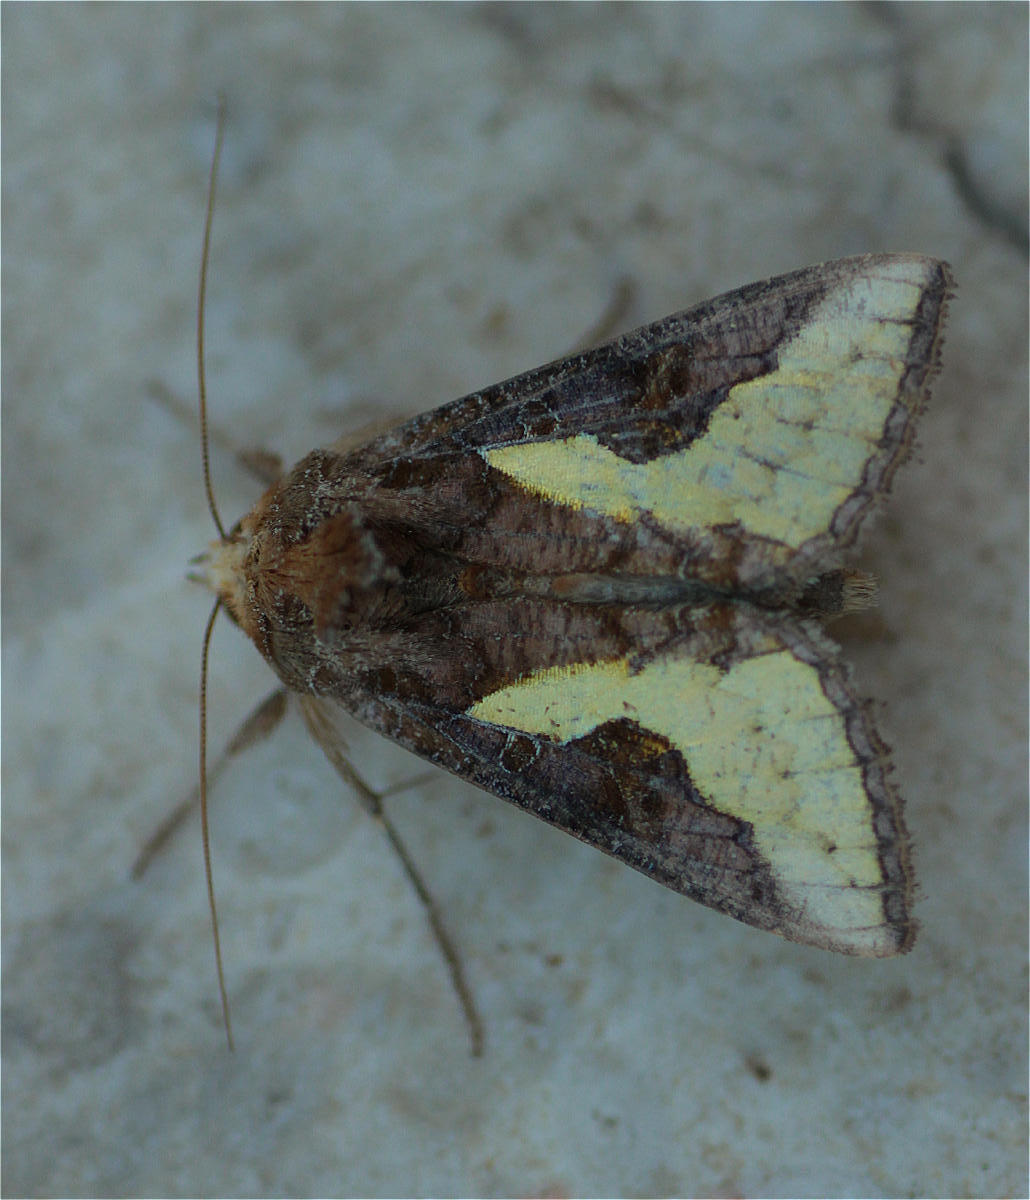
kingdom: Animalia
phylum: Arthropoda
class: Insecta
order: Lepidoptera
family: Noctuidae
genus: Thysanoplusia
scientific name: Thysanoplusia orichalcea
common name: Slender burnished brass, golden plusia
